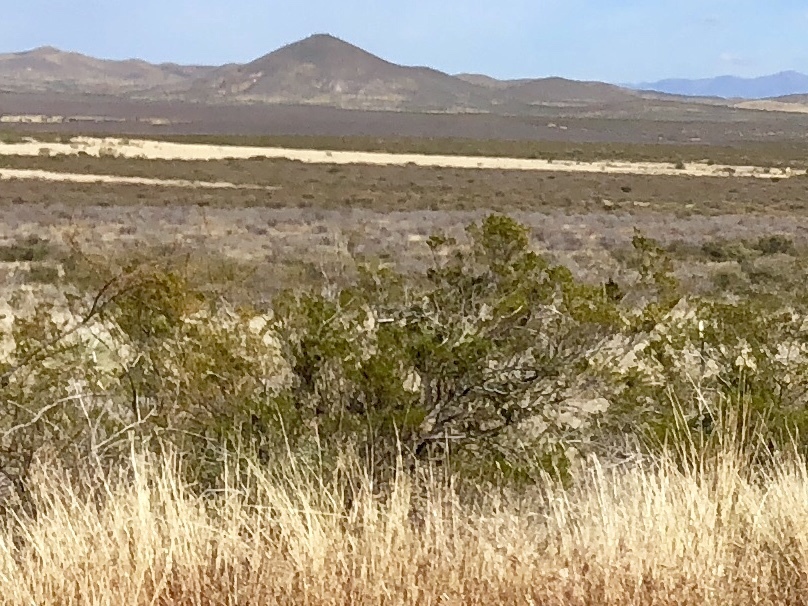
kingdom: Plantae
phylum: Tracheophyta
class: Magnoliopsida
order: Zygophyllales
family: Zygophyllaceae
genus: Larrea
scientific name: Larrea tridentata
